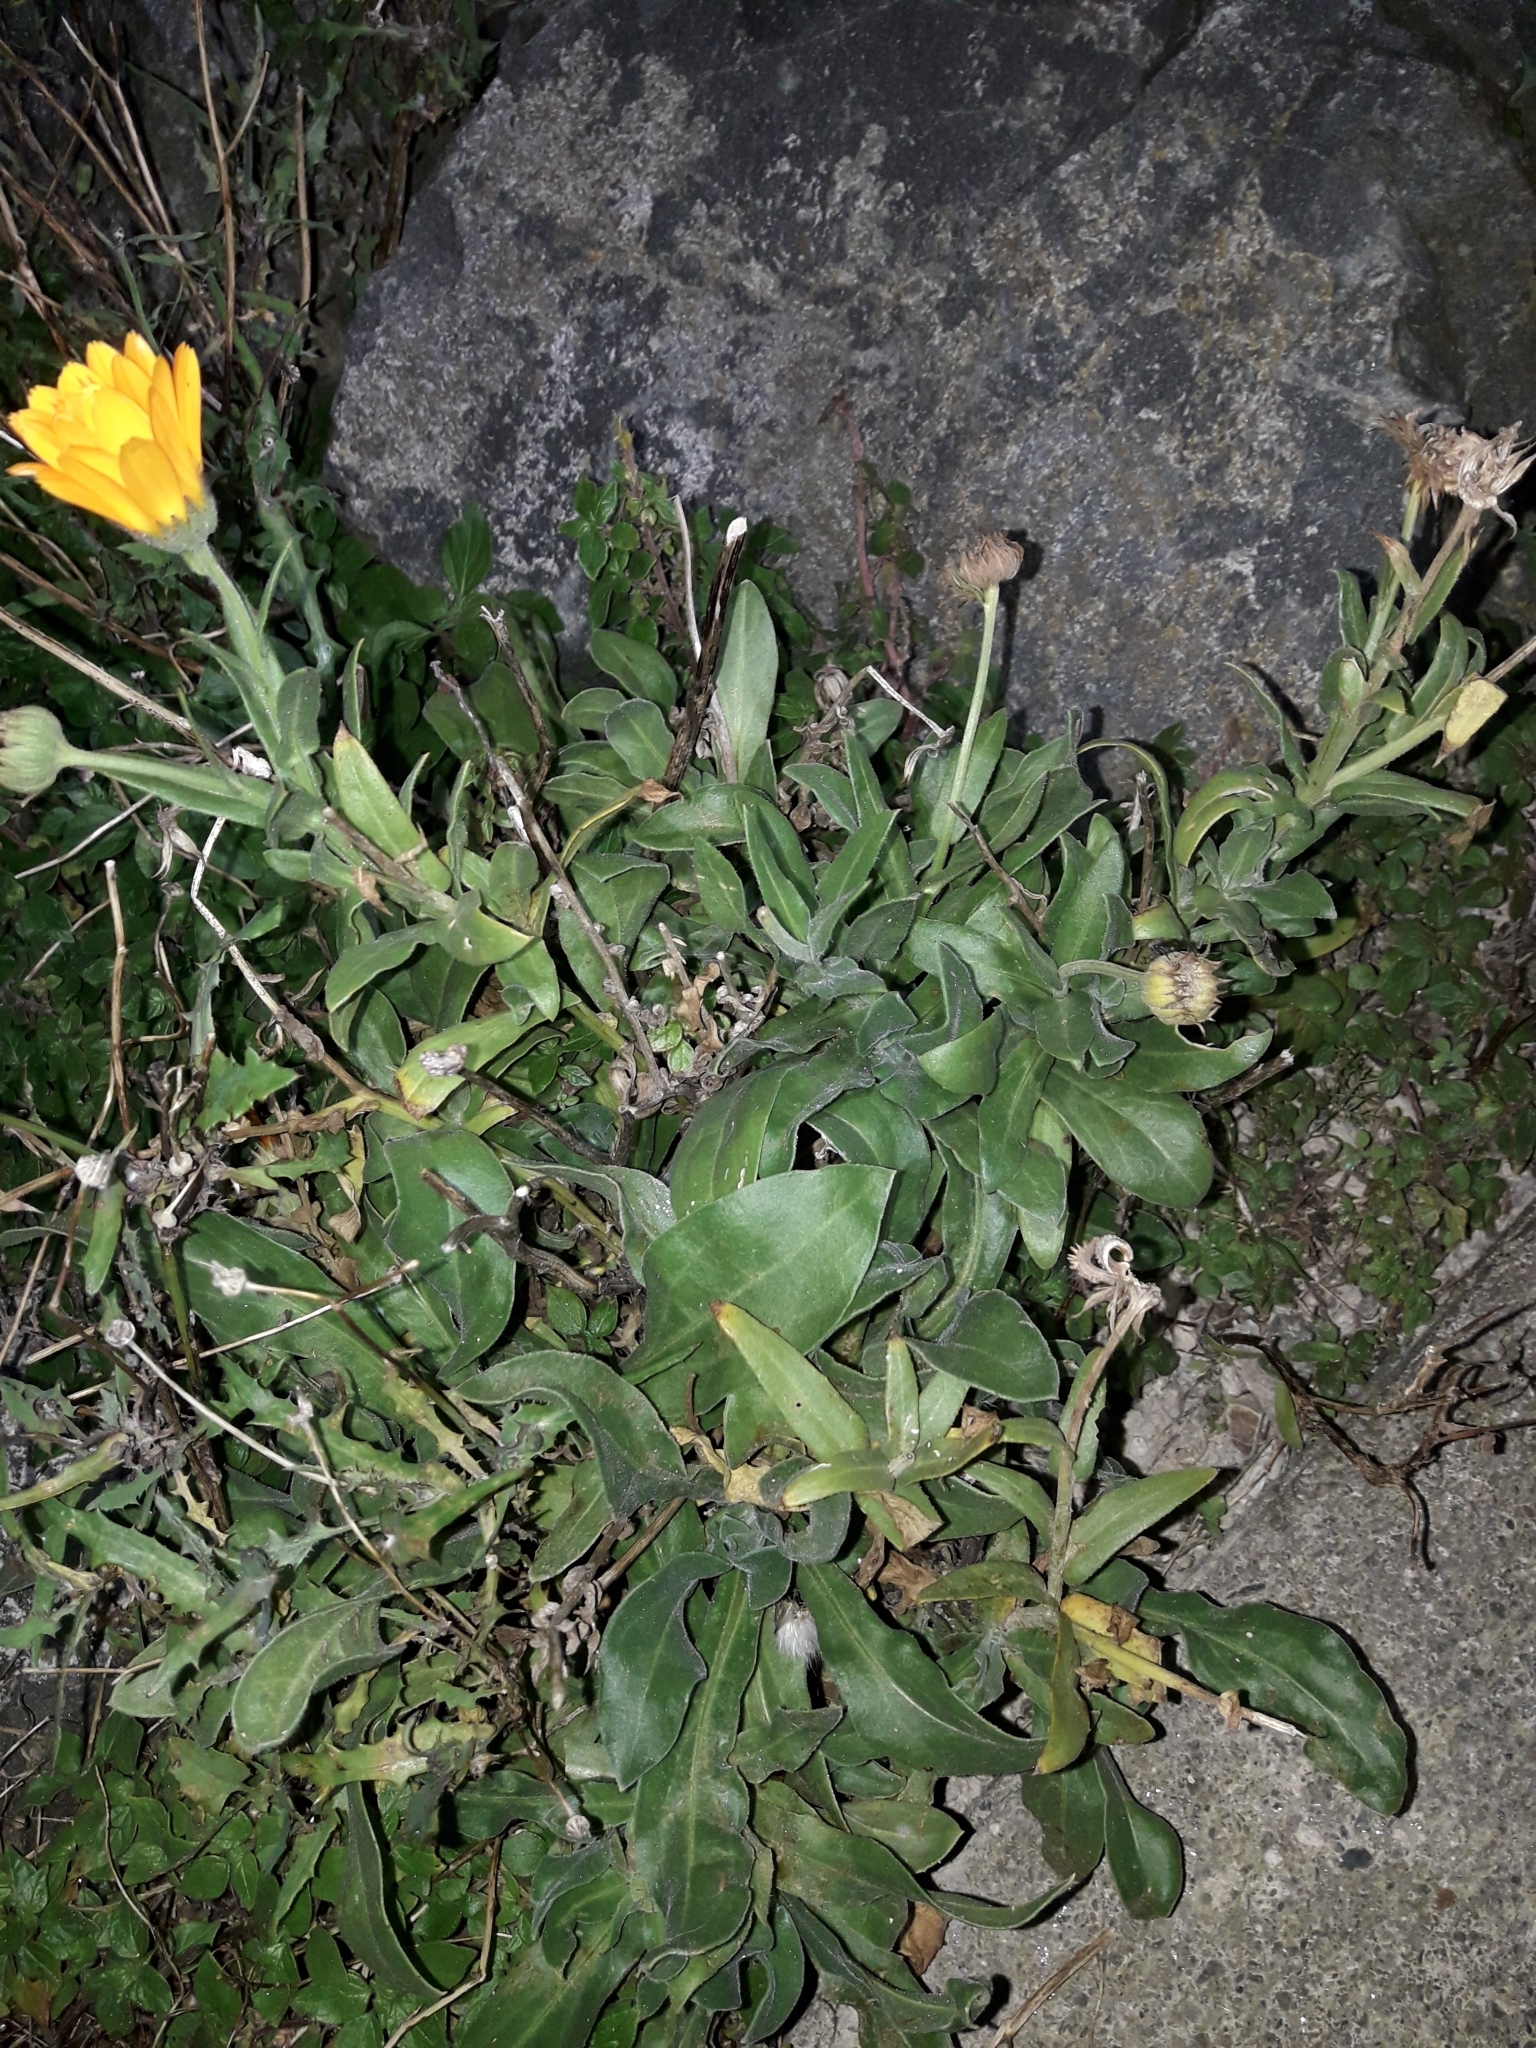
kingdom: Plantae
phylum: Tracheophyta
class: Magnoliopsida
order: Asterales
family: Asteraceae
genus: Calendula
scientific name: Calendula officinalis
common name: Pot marigold
